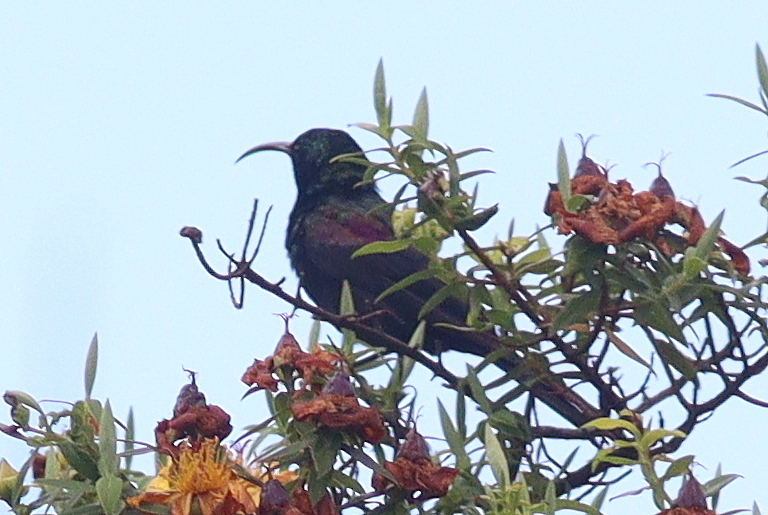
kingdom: Animalia
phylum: Chordata
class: Aves
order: Passeriformes
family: Nectariniidae
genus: Nectarinia
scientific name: Nectarinia tacazze
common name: Tacazze sunbird
